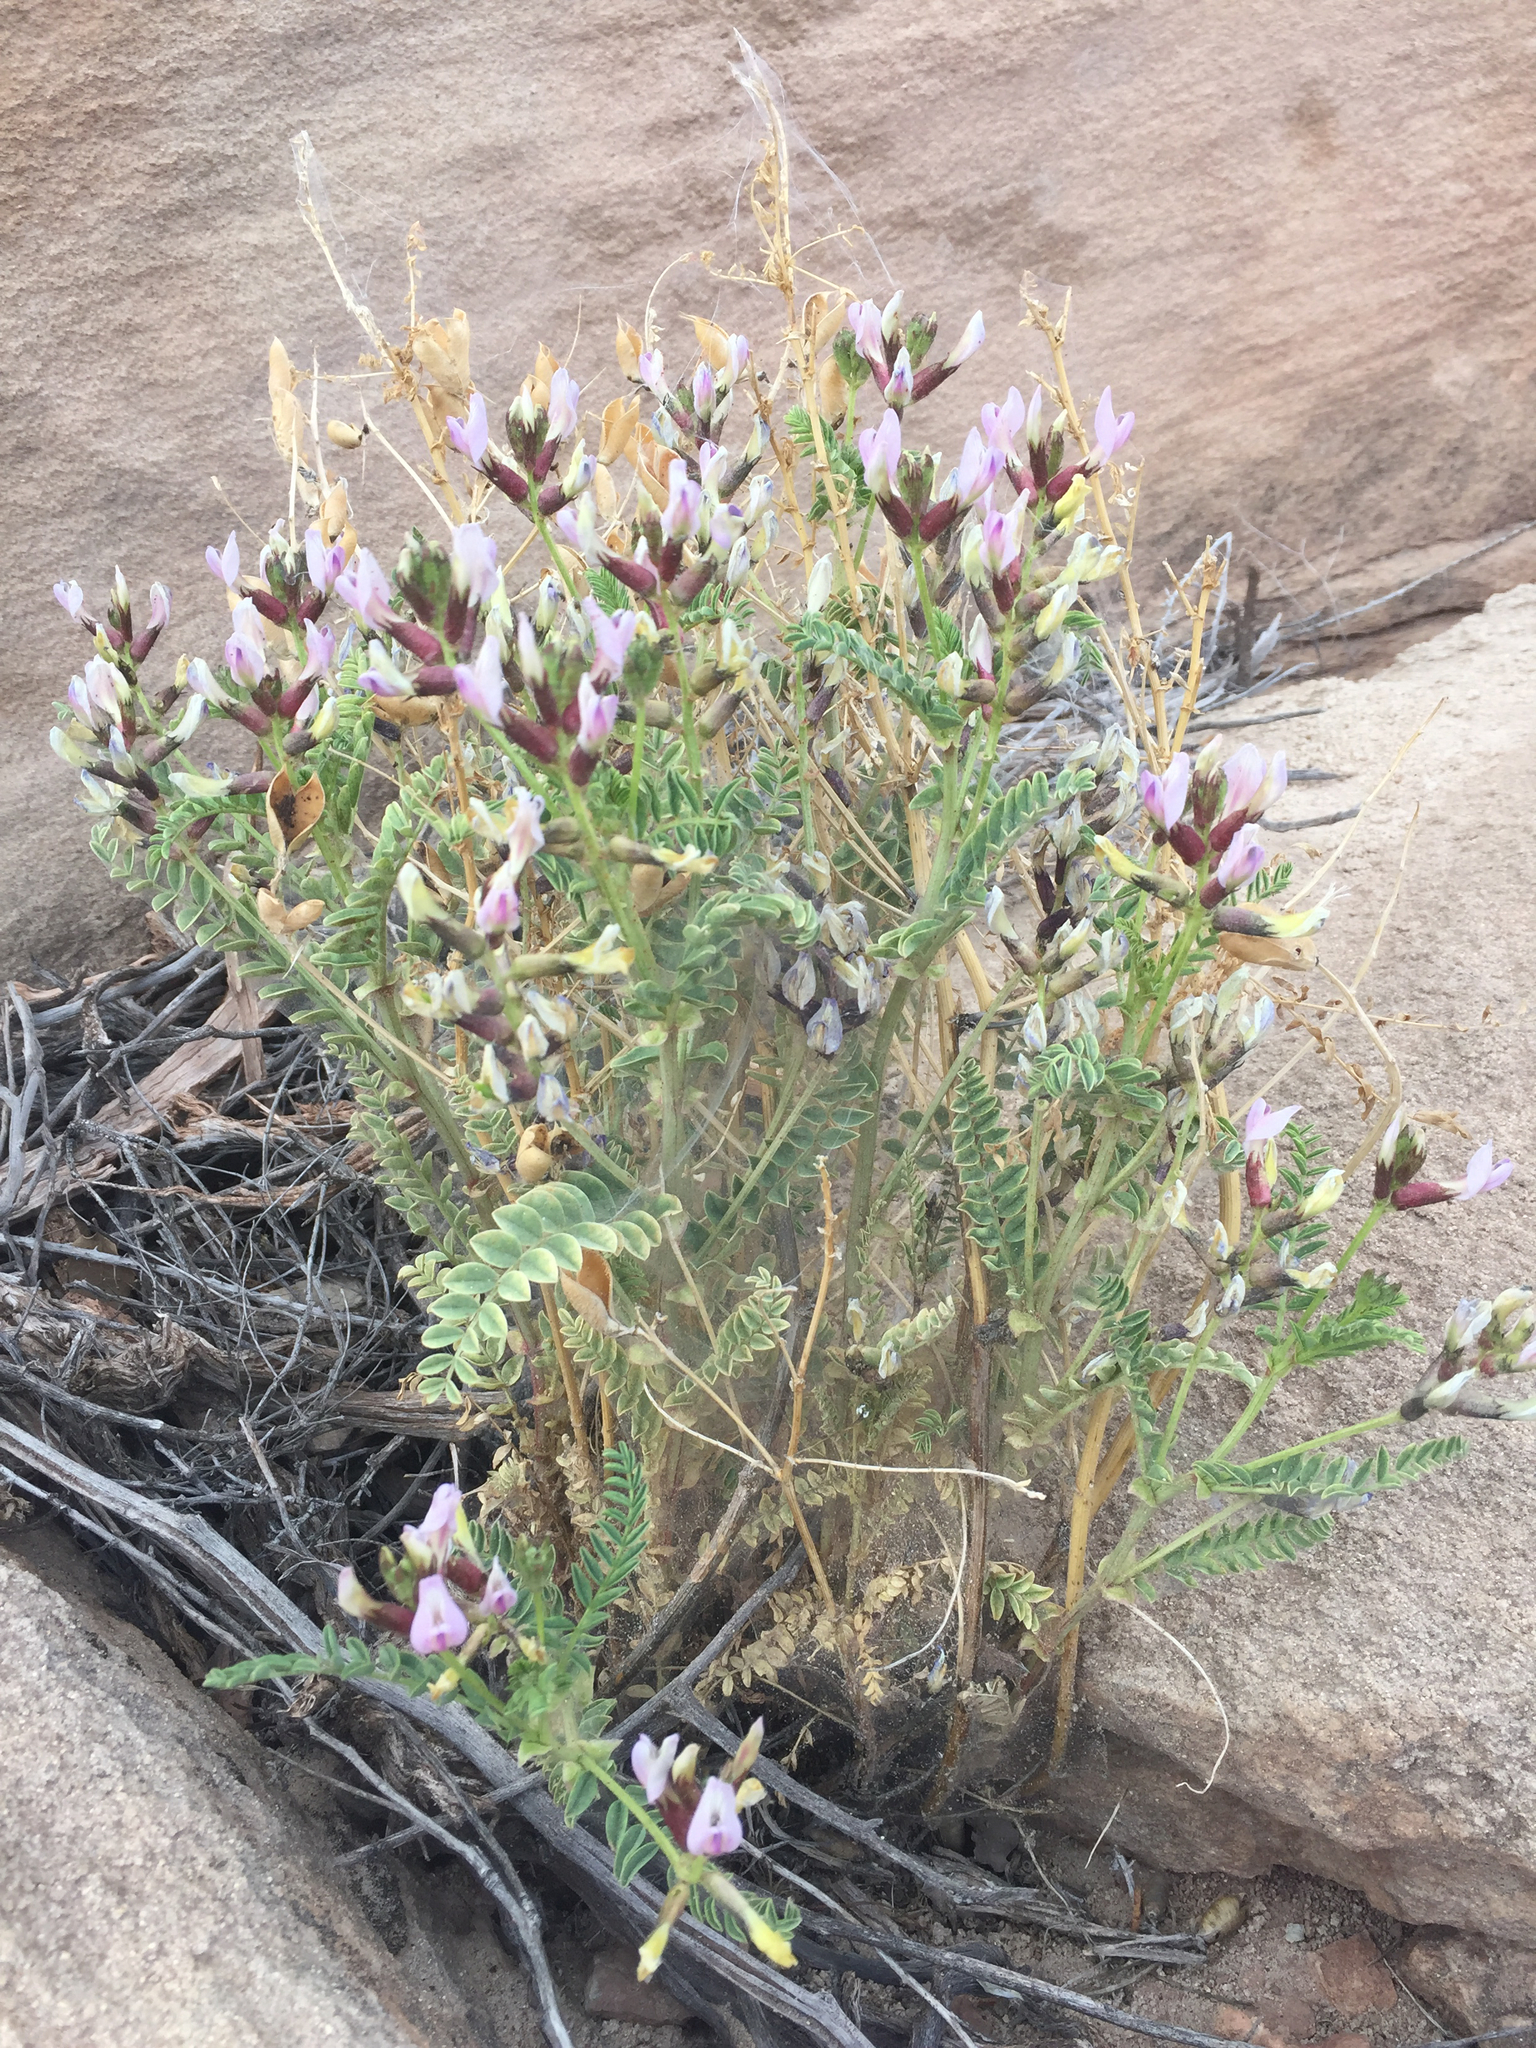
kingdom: Plantae
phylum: Tracheophyta
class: Magnoliopsida
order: Fabales
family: Fabaceae
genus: Astragalus
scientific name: Astragalus preussii
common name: Preuss's milk-vetch
